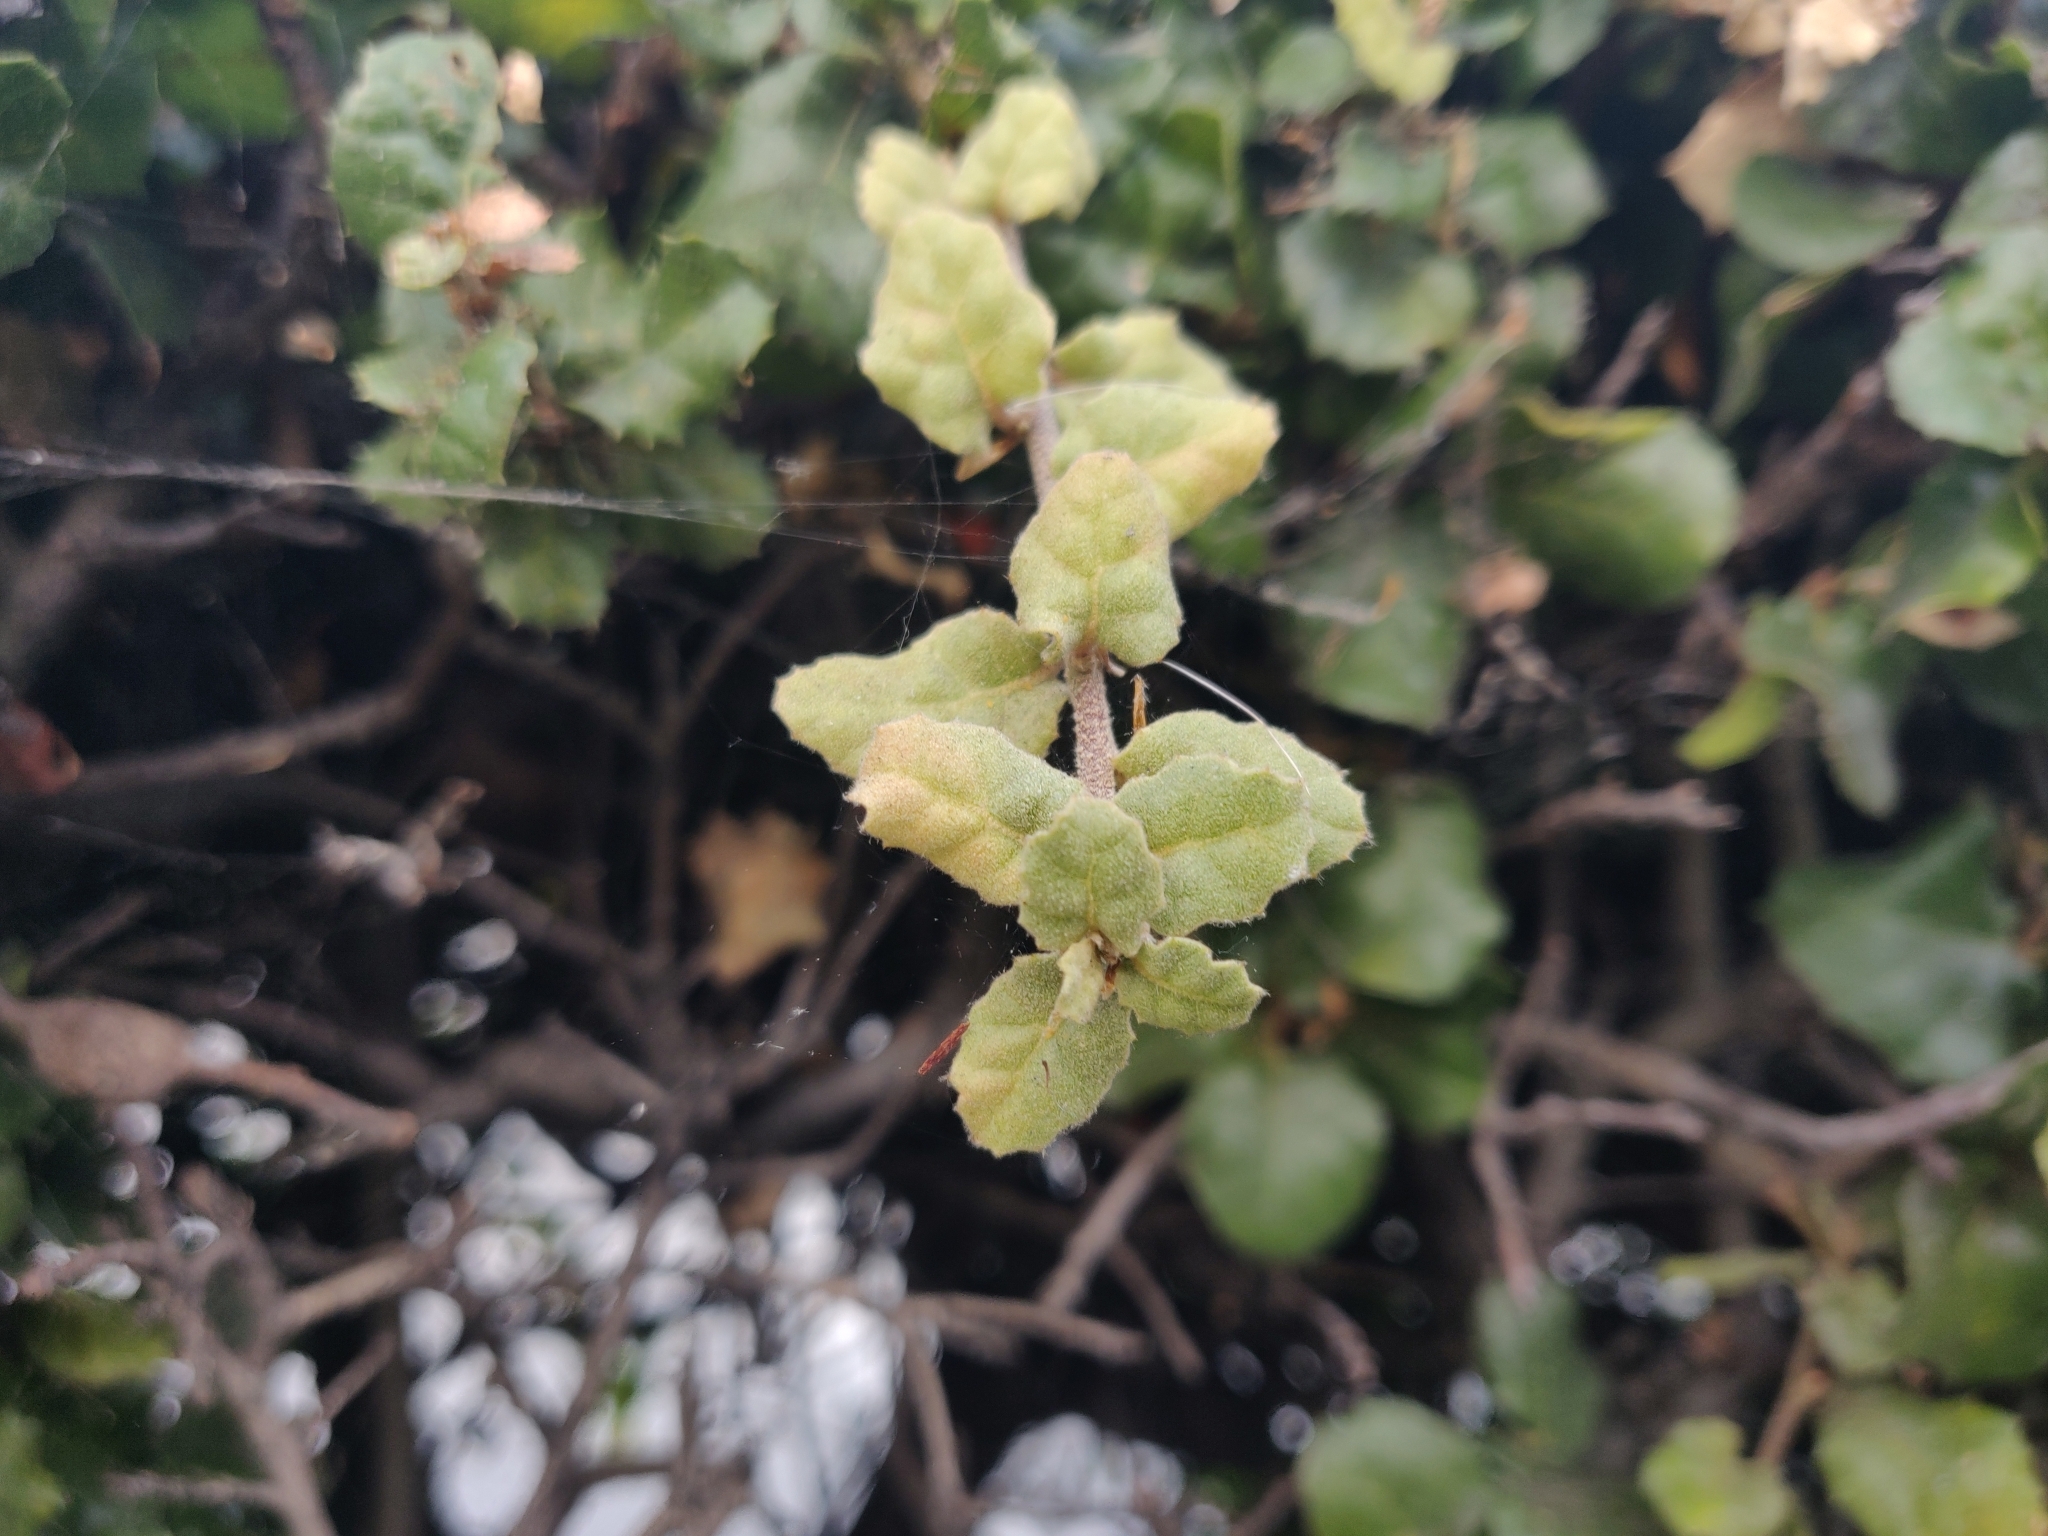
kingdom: Plantae
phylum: Tracheophyta
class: Magnoliopsida
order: Fagales
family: Fagaceae
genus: Quercus
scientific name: Quercus agrifolia
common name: California live oak
